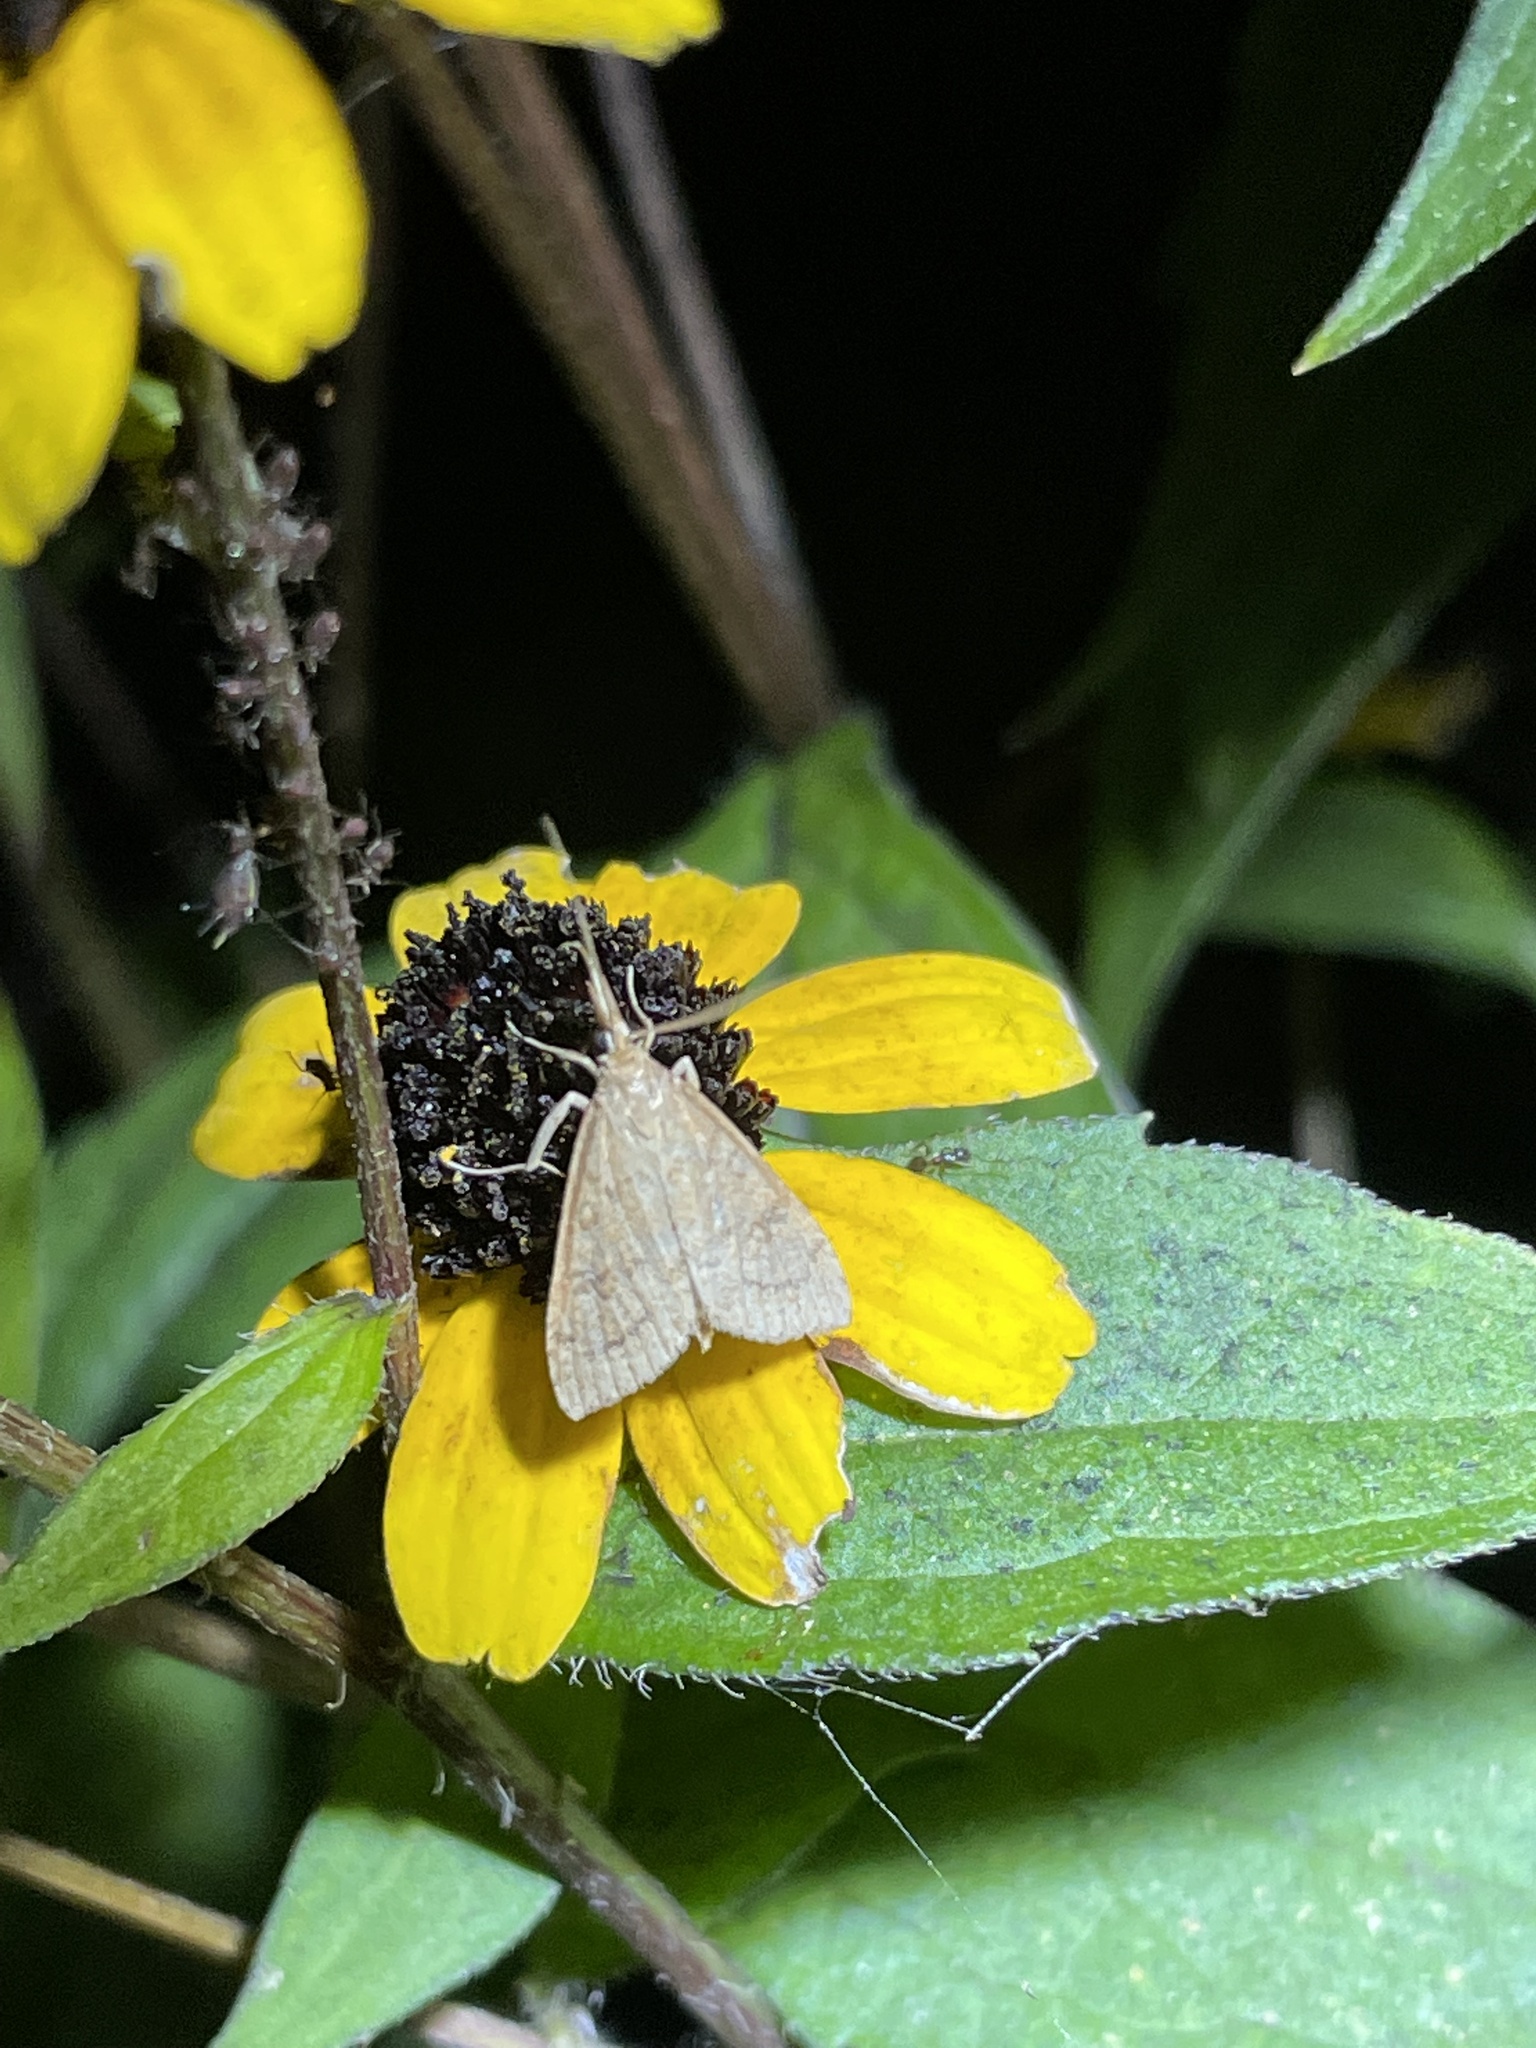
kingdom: Animalia
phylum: Arthropoda
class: Insecta
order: Lepidoptera
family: Crambidae
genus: Udea
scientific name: Udea rubigalis
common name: Celery leaftier moth
